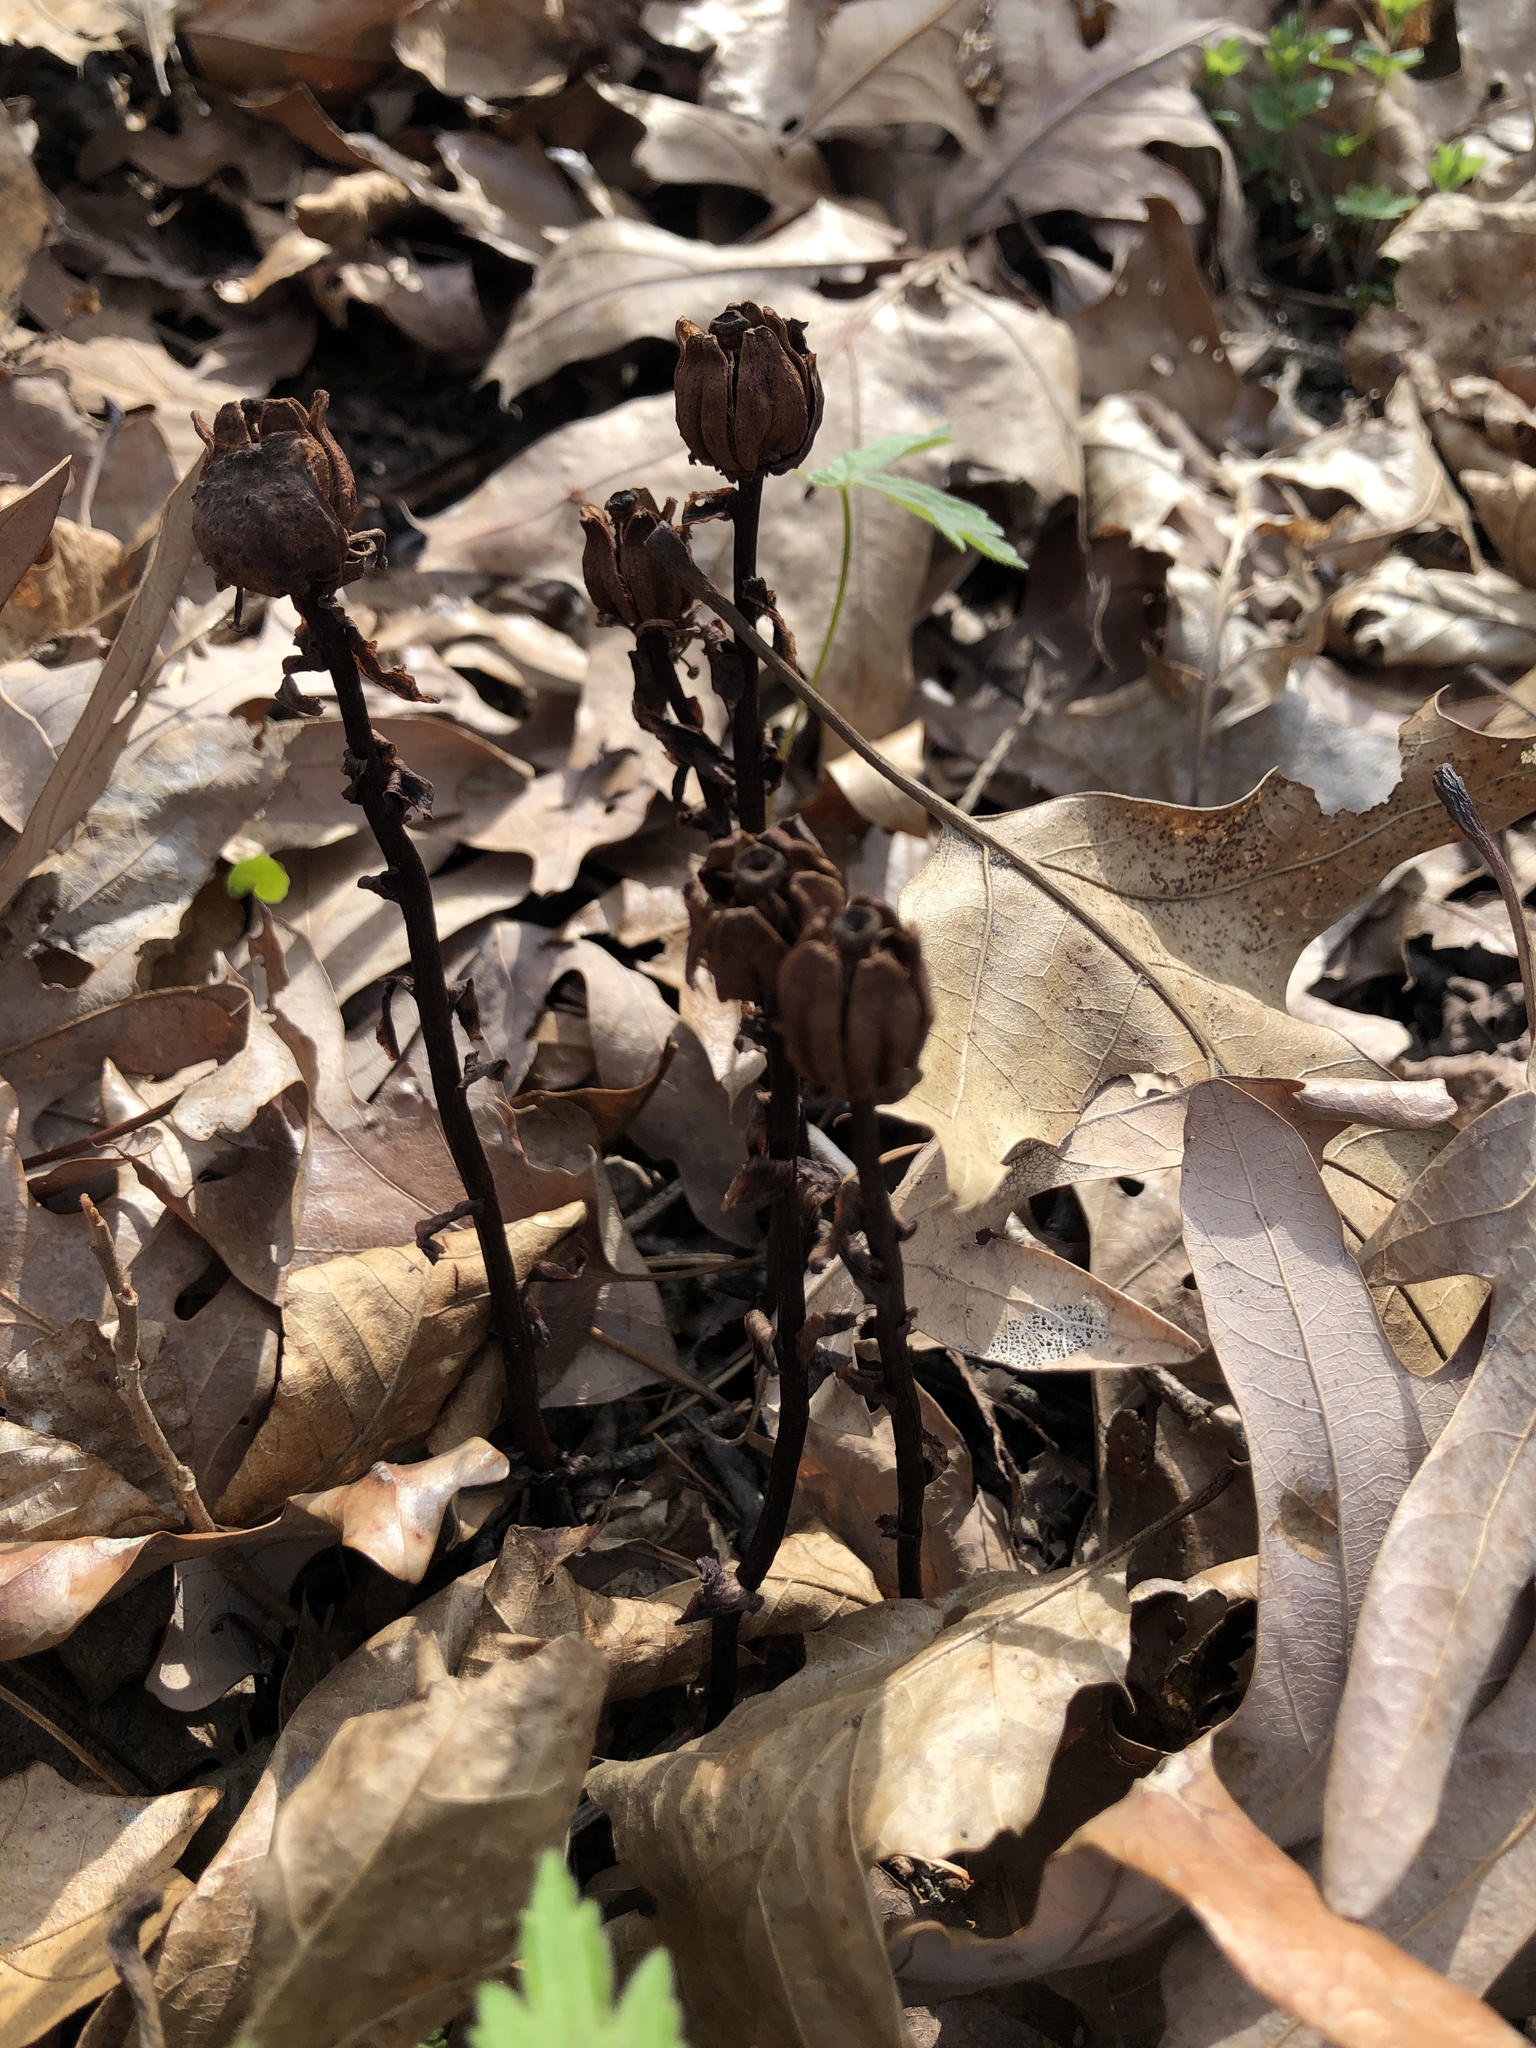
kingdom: Plantae
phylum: Tracheophyta
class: Magnoliopsida
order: Ericales
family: Ericaceae
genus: Monotropa
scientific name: Monotropa uniflora
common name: Convulsion root
